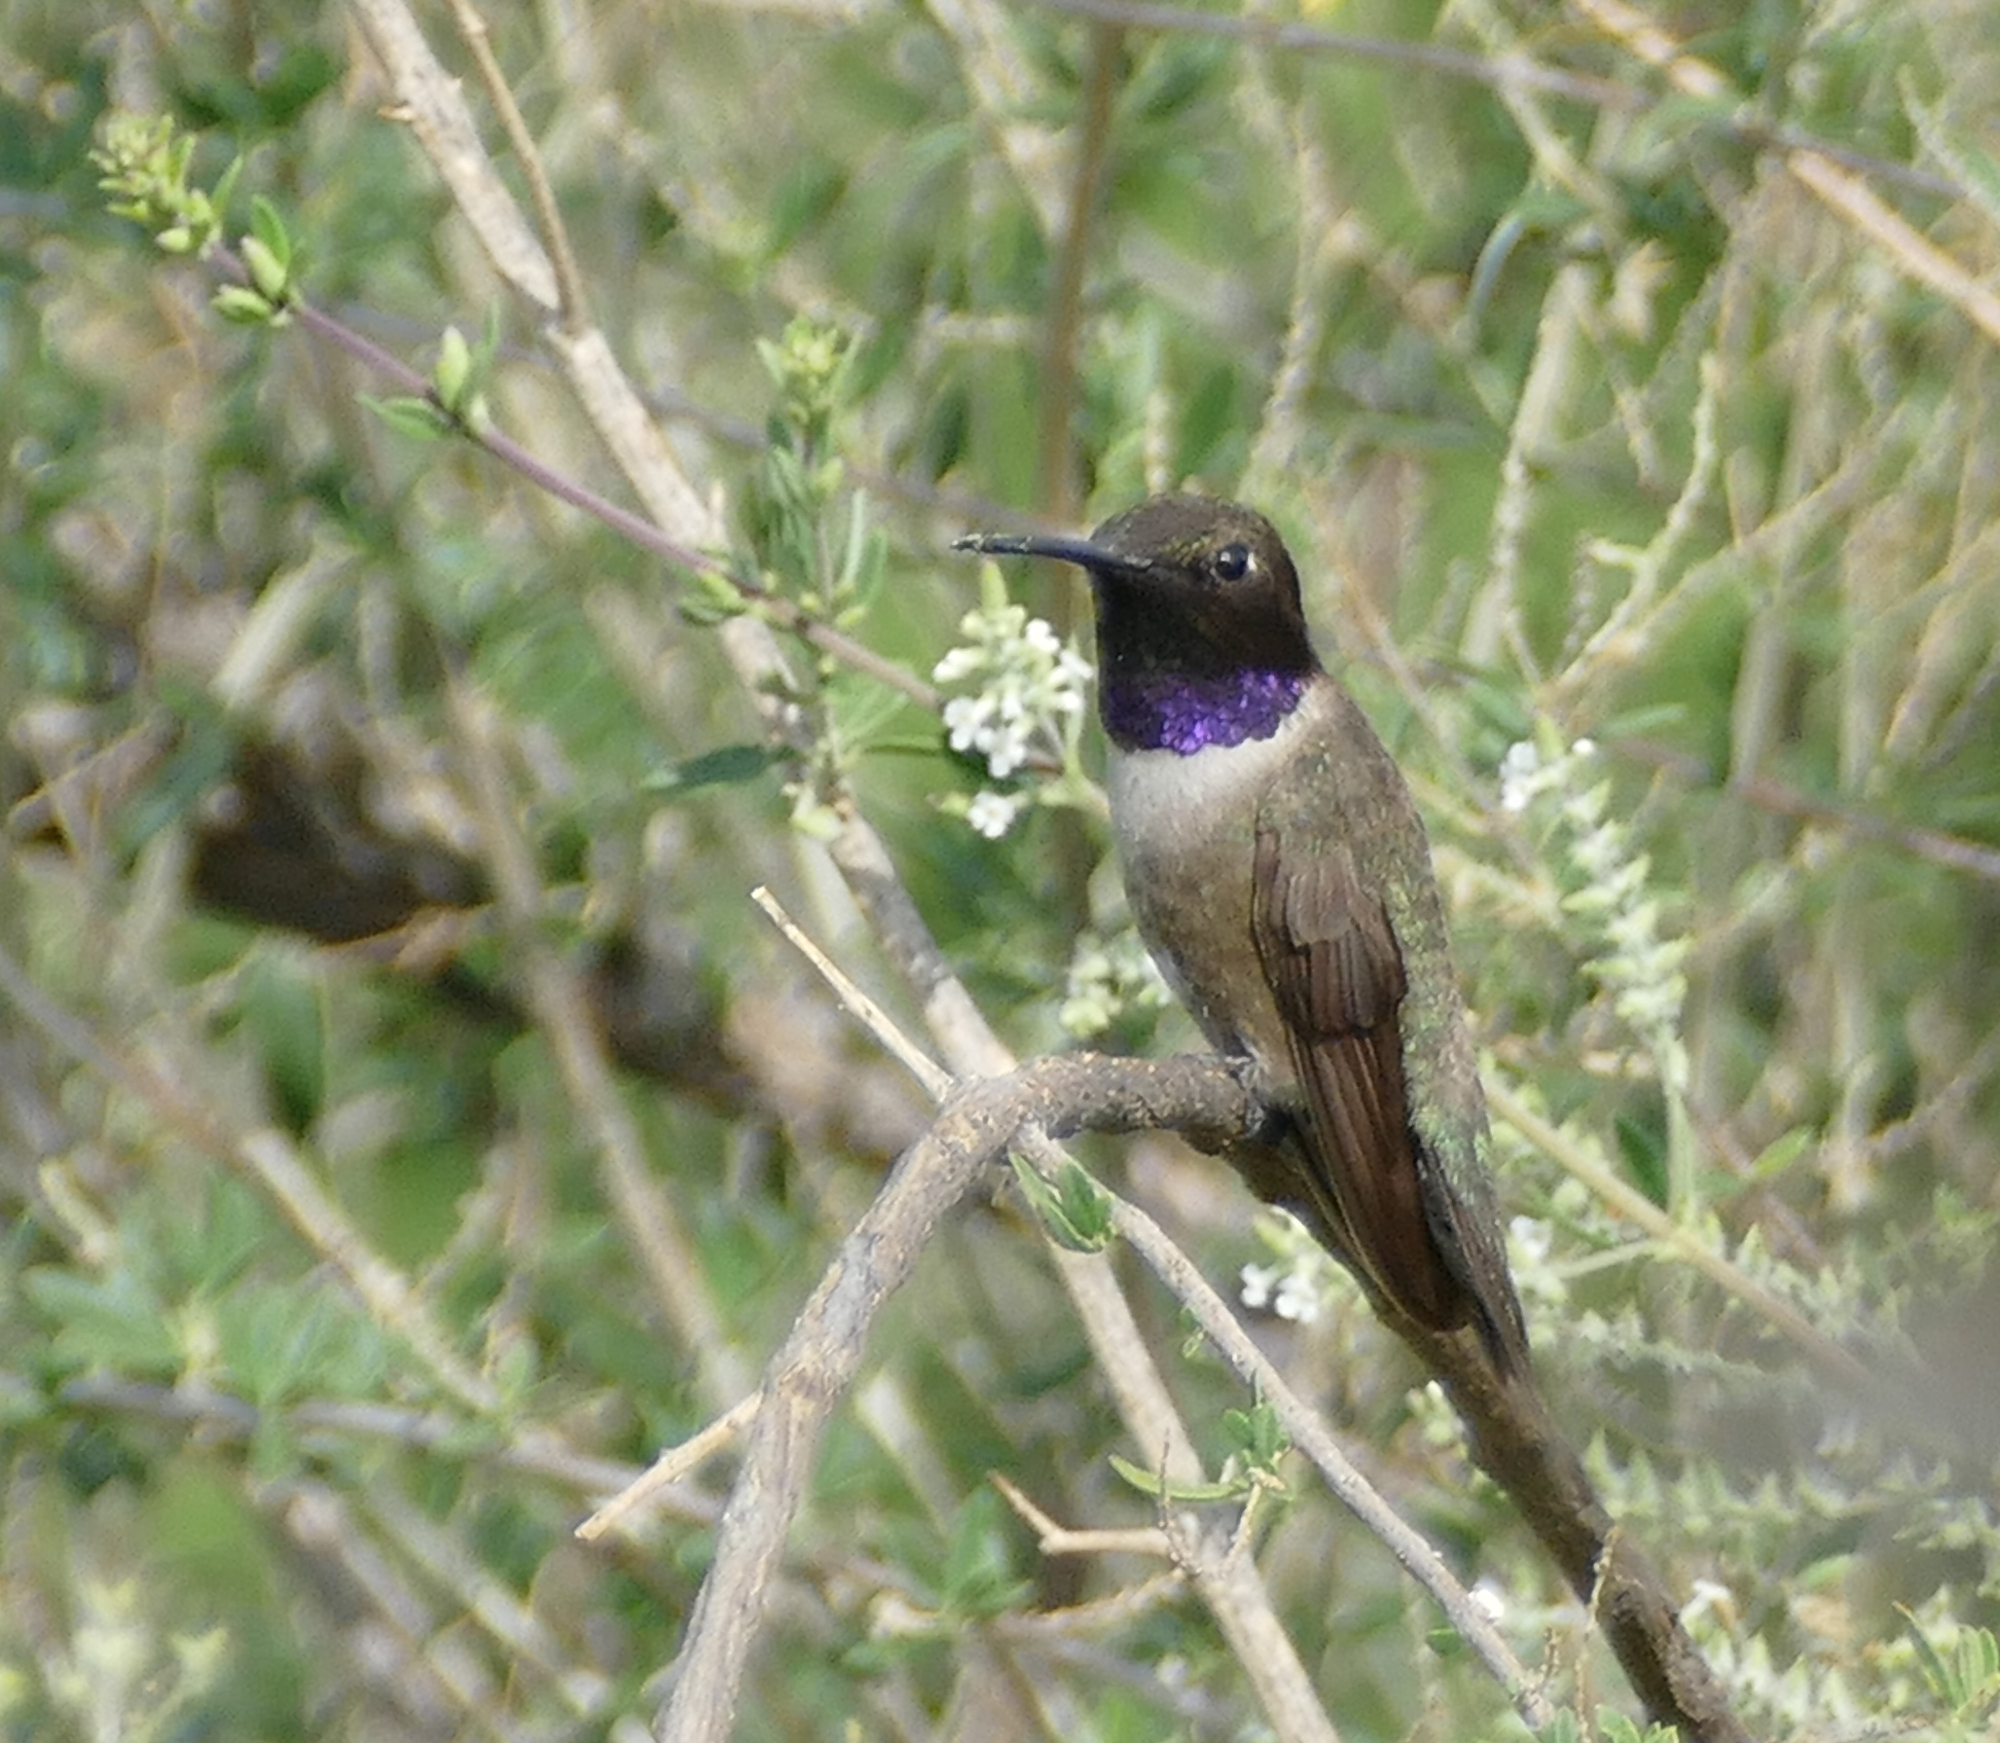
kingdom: Animalia
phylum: Chordata
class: Aves
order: Apodiformes
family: Trochilidae
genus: Archilochus
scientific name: Archilochus alexandri
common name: Black-chinned hummingbird
